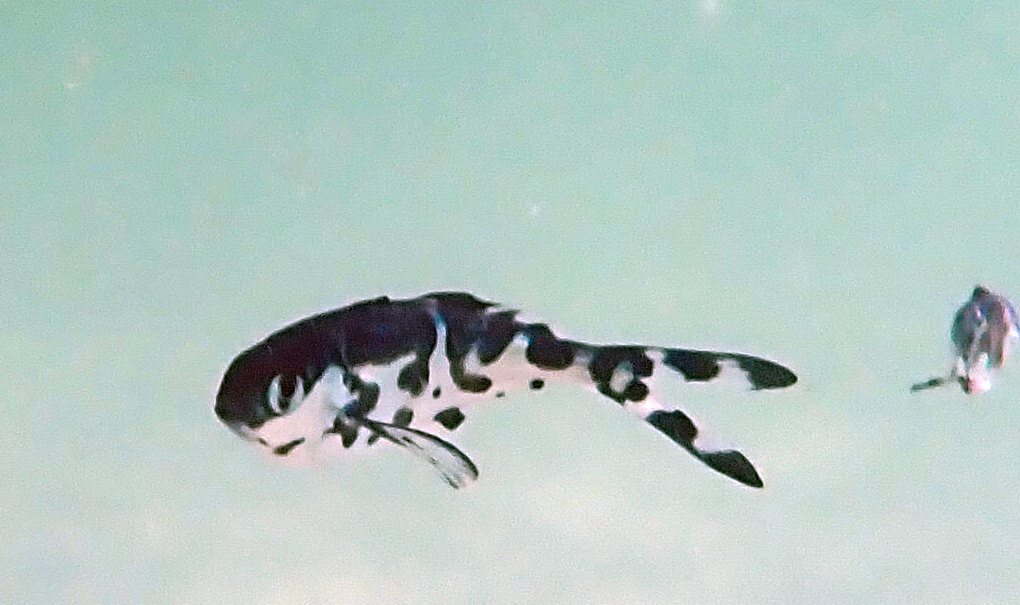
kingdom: Animalia
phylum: Chordata
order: Perciformes
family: Nomeidae
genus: Nomeus
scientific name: Nomeus gronovii
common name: Man-of-war fish
